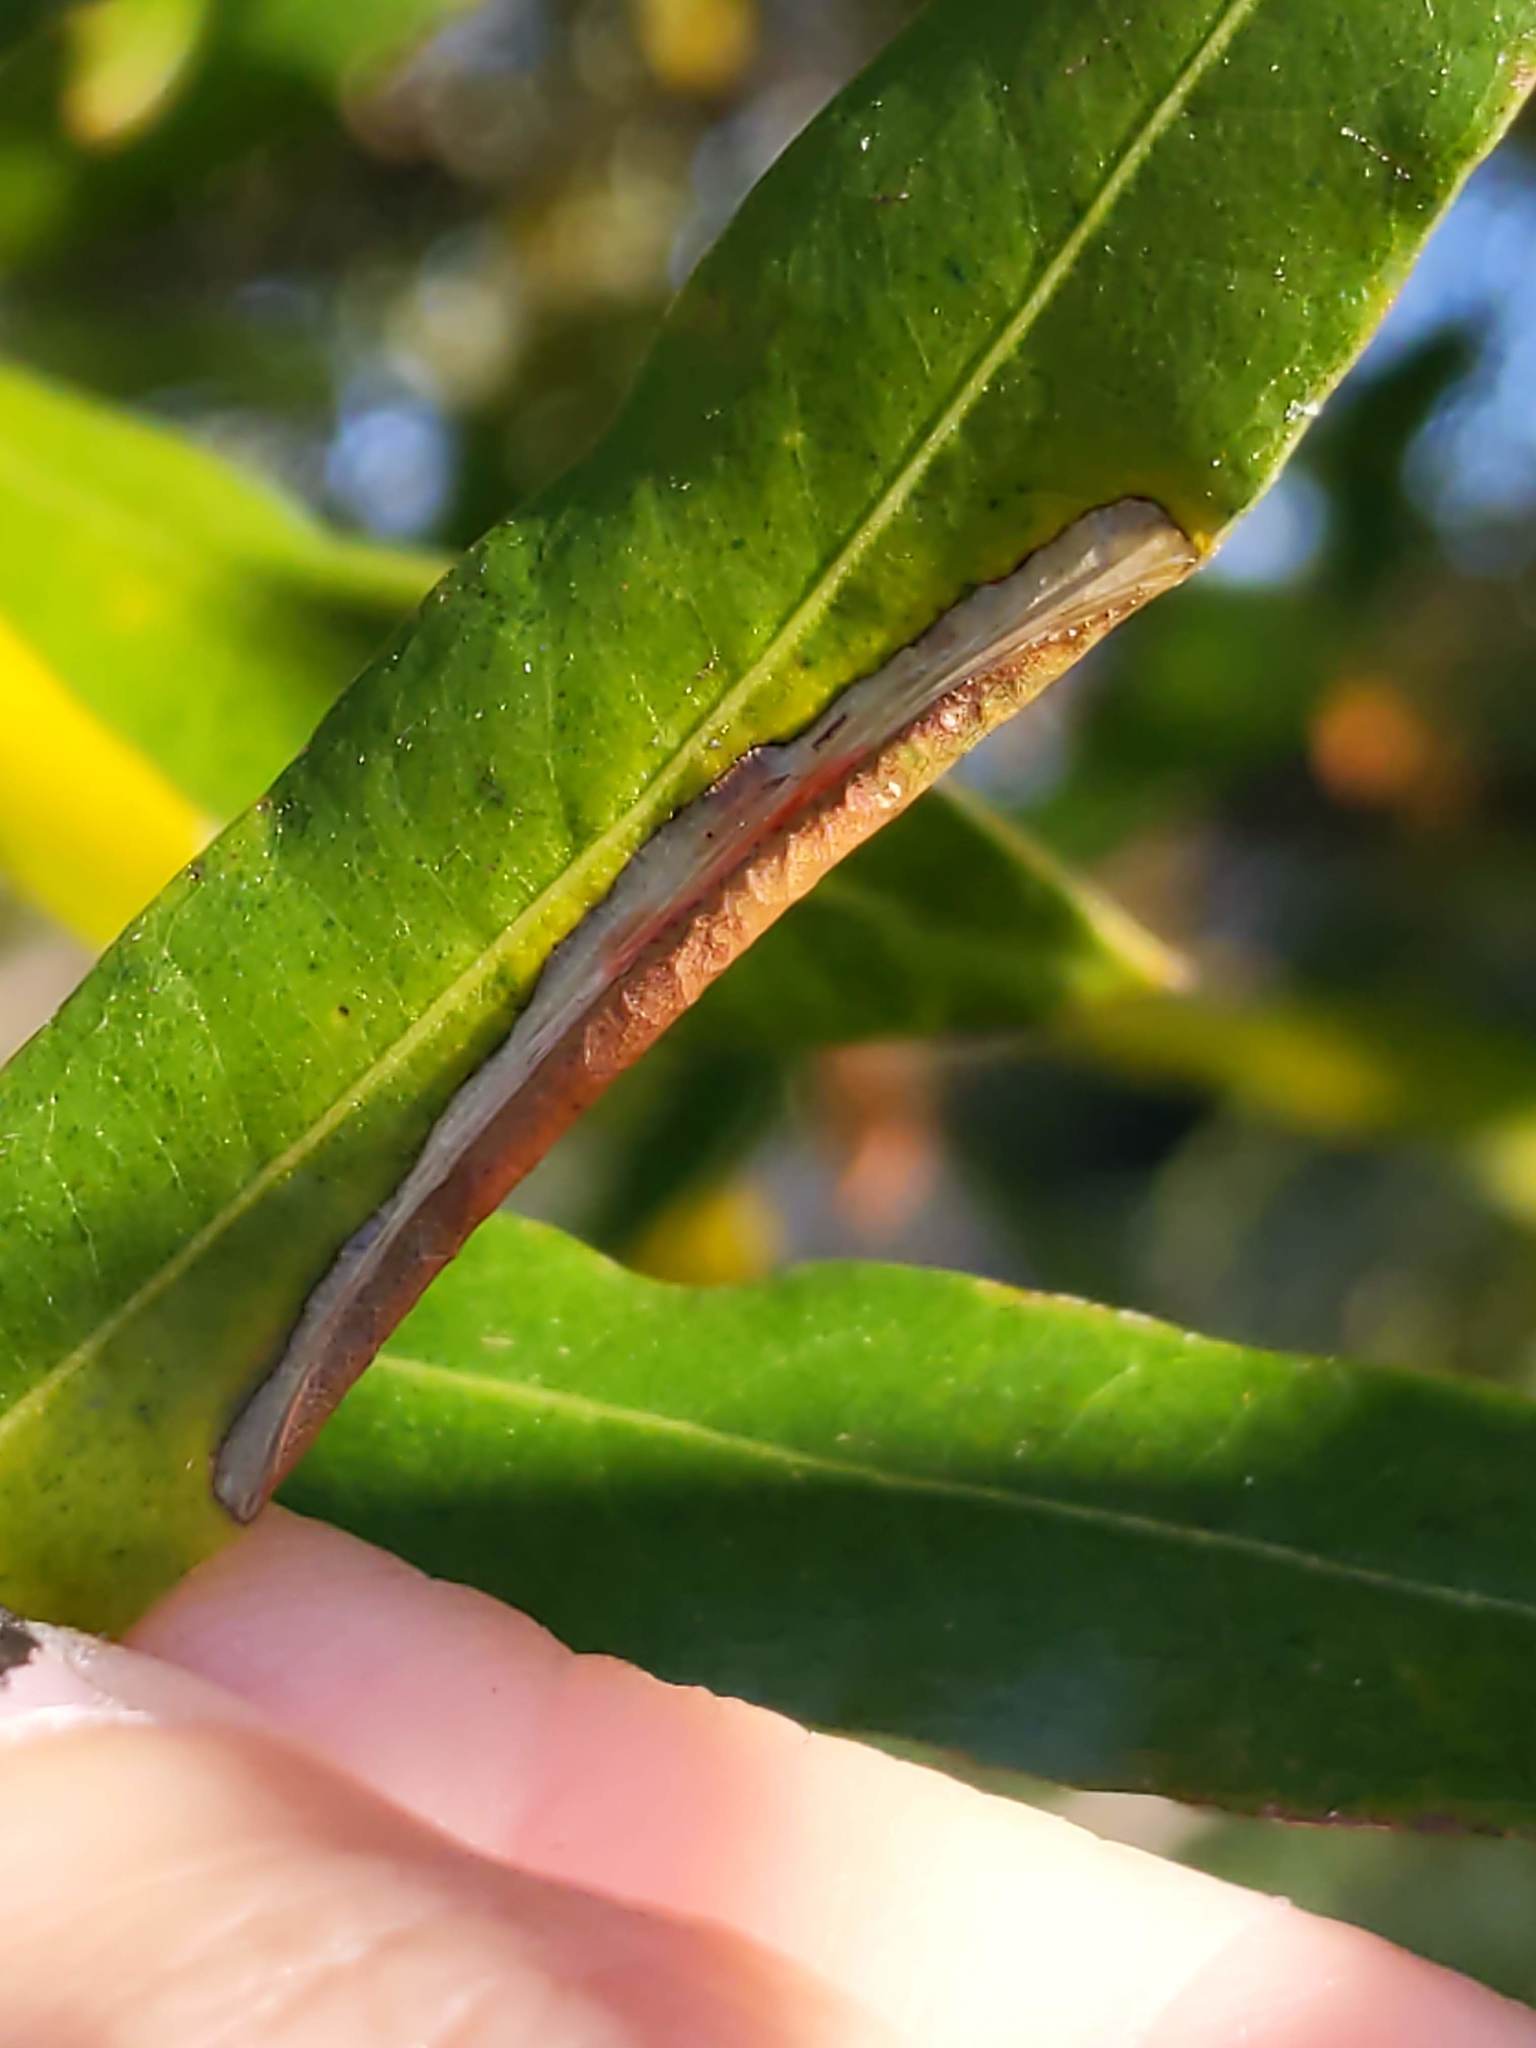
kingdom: Animalia
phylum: Arthropoda
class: Insecta
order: Lepidoptera
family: Tischeriidae
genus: Coptotriche
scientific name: Coptotriche citrinipennella
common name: The golden sweeper
